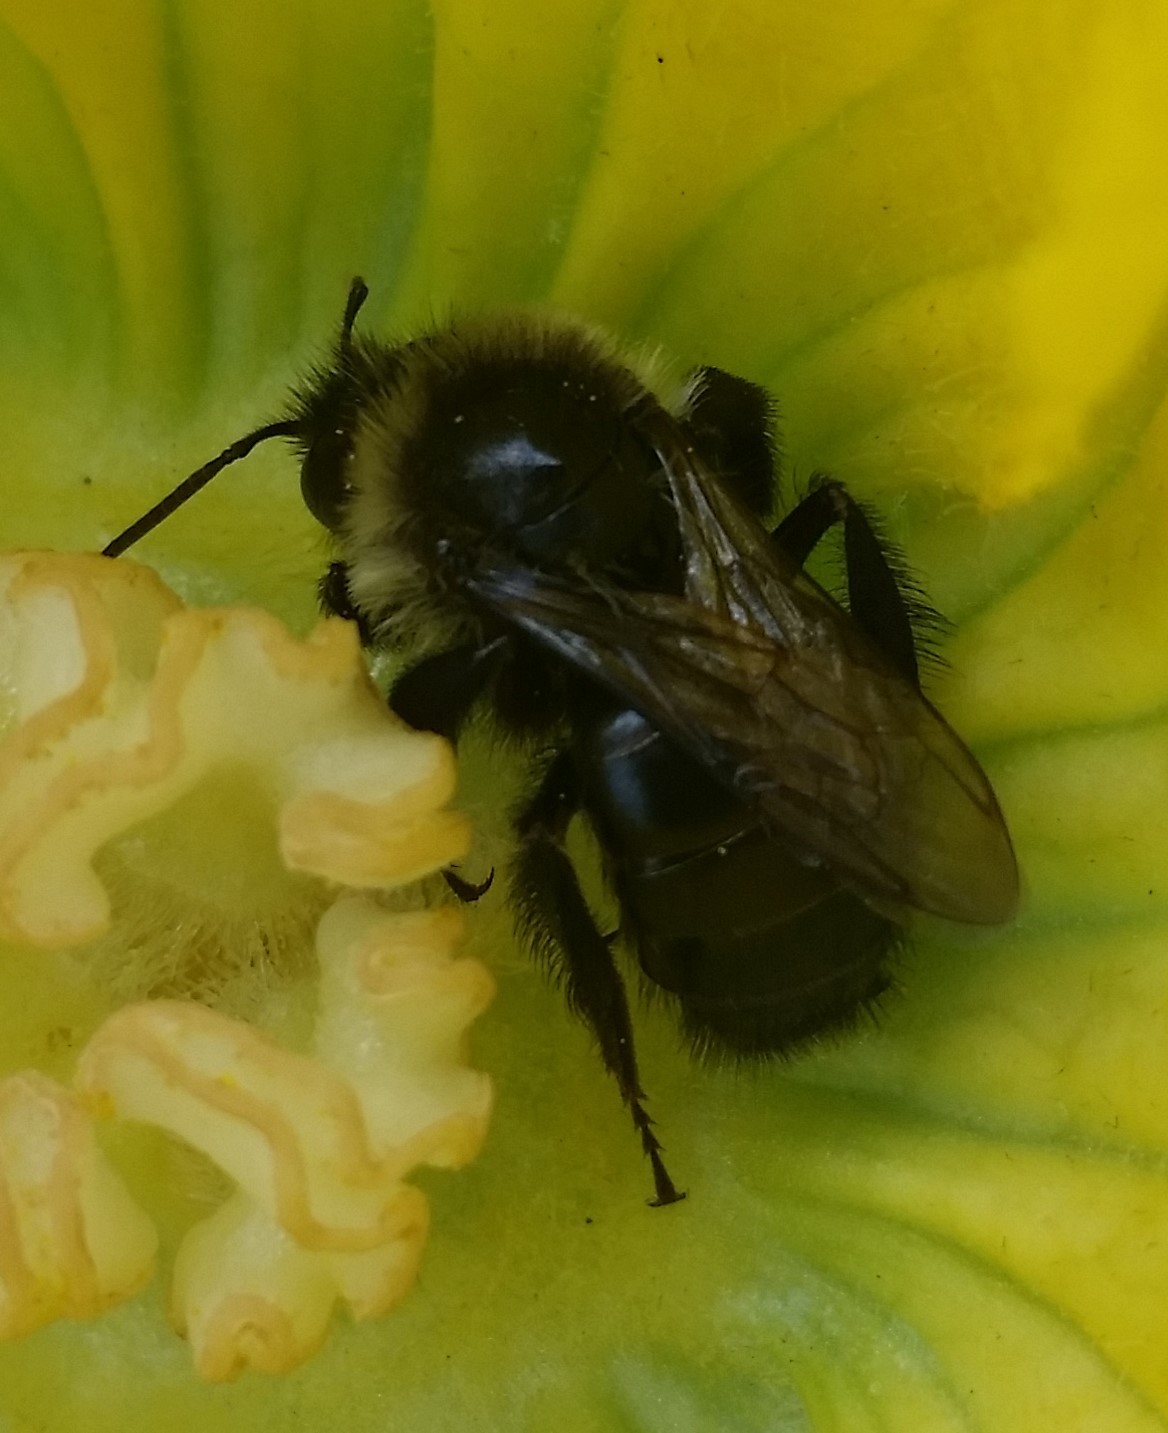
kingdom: Animalia
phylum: Arthropoda
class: Insecta
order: Hymenoptera
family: Apidae
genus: Bombus
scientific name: Bombus impatiens
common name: Common eastern bumble bee
